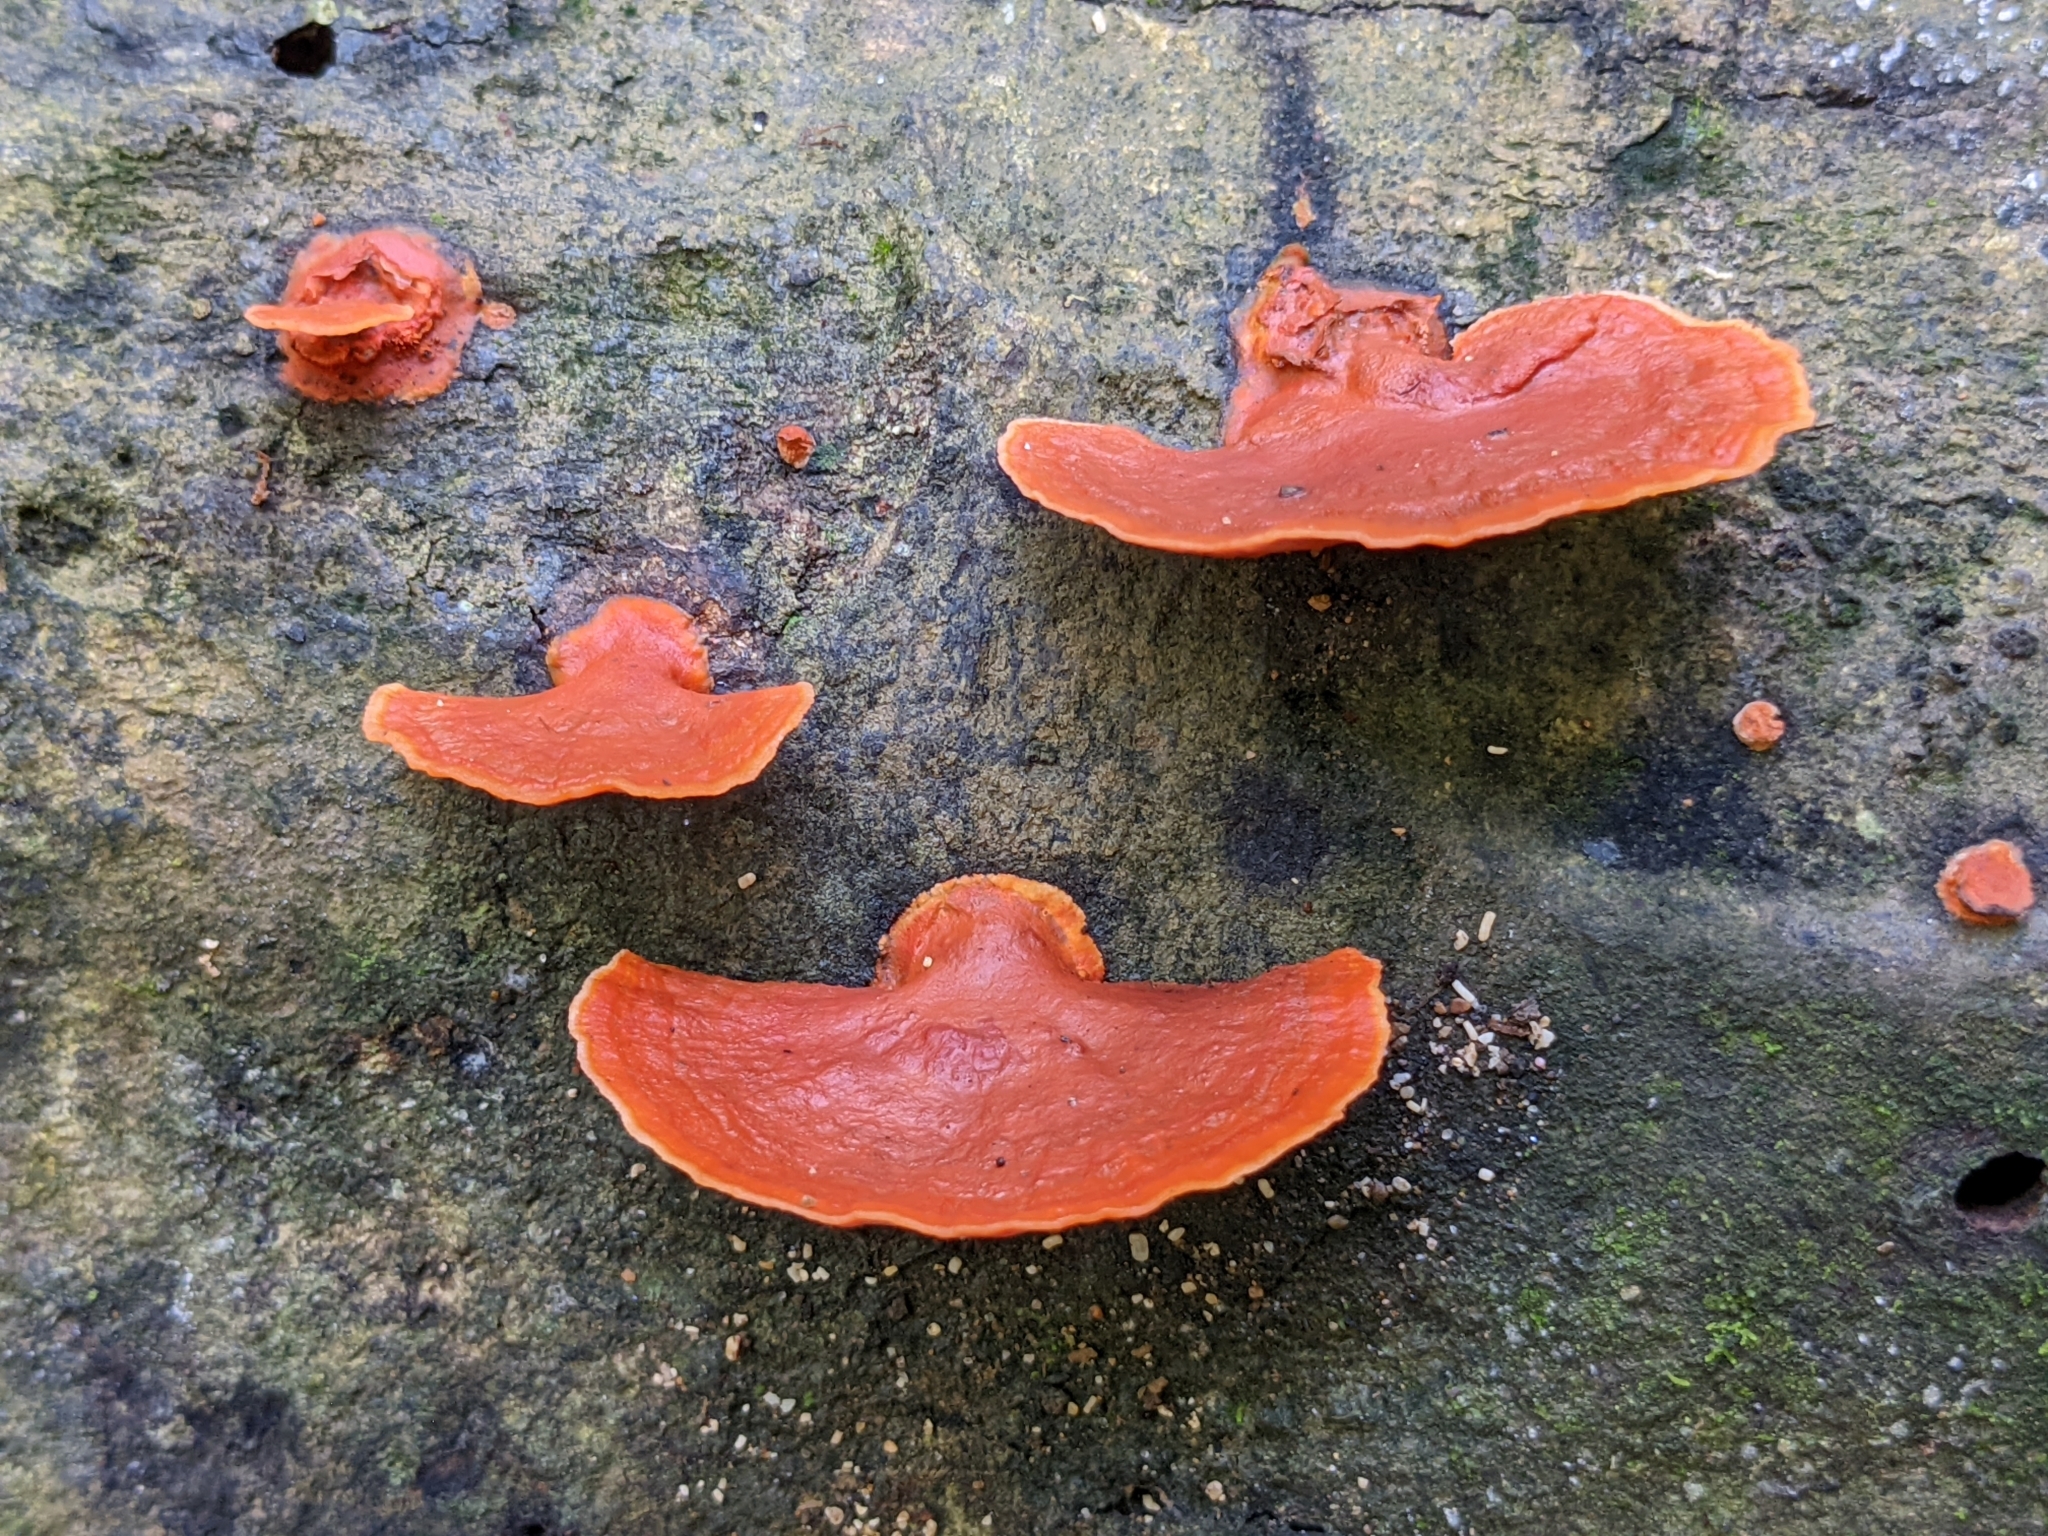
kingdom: Fungi
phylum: Basidiomycota
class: Agaricomycetes
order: Polyporales
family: Polyporaceae
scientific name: Polyporaceae
